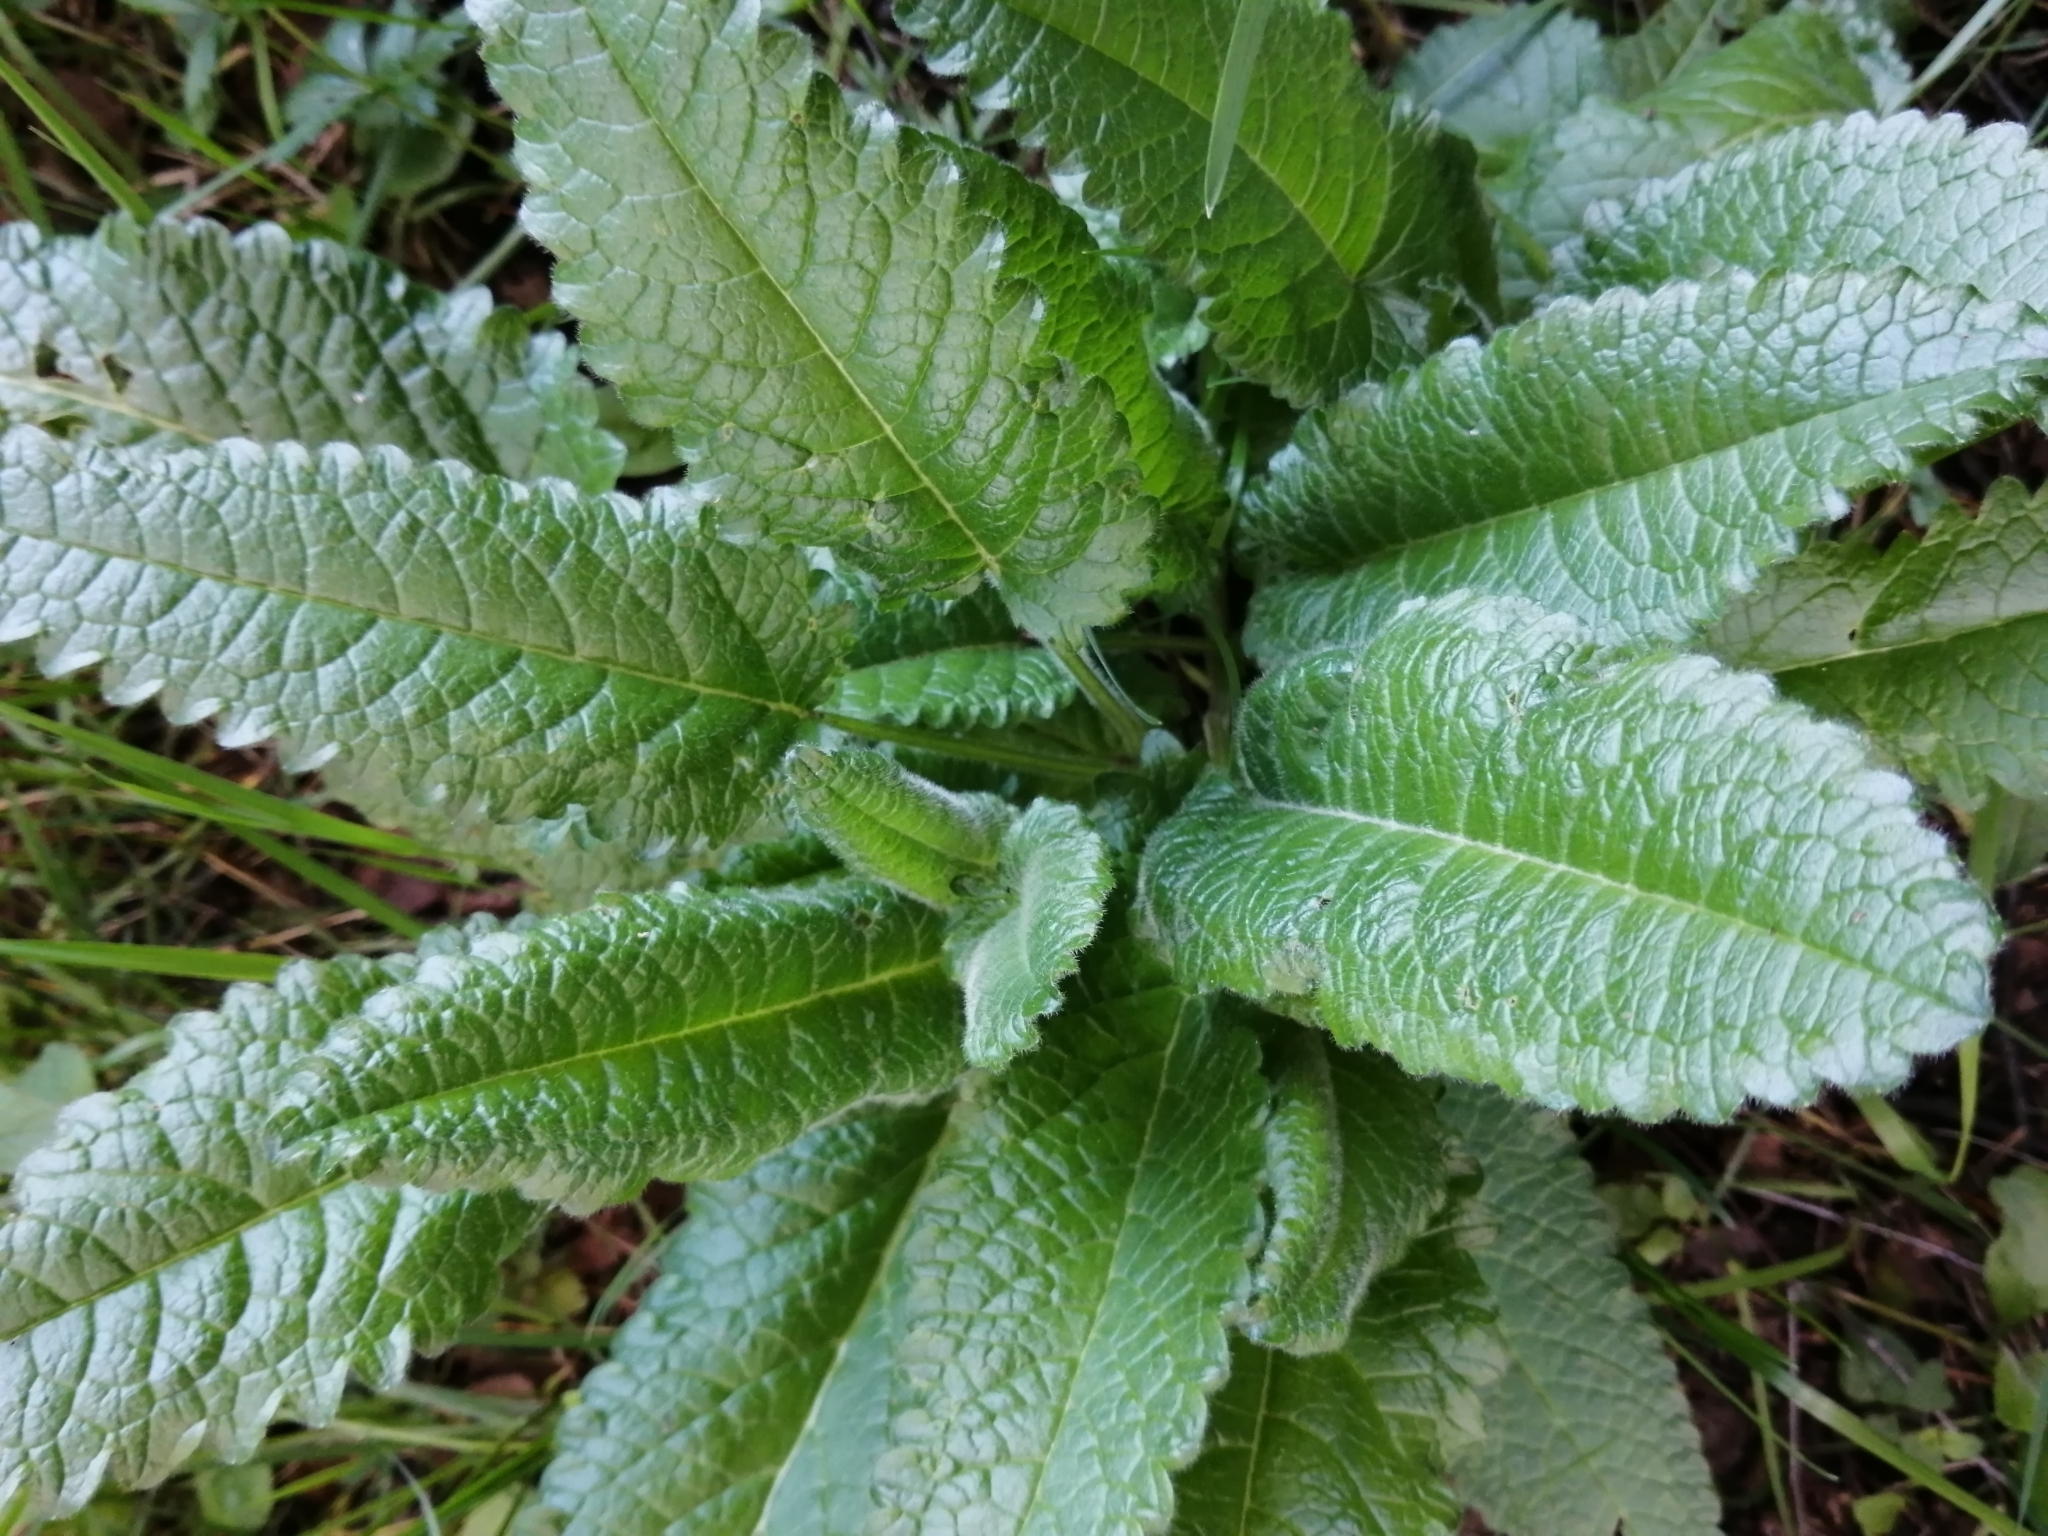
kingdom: Plantae
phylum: Tracheophyta
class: Magnoliopsida
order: Lamiales
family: Lamiaceae
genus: Betonica
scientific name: Betonica officinalis
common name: Bishop's-wort
